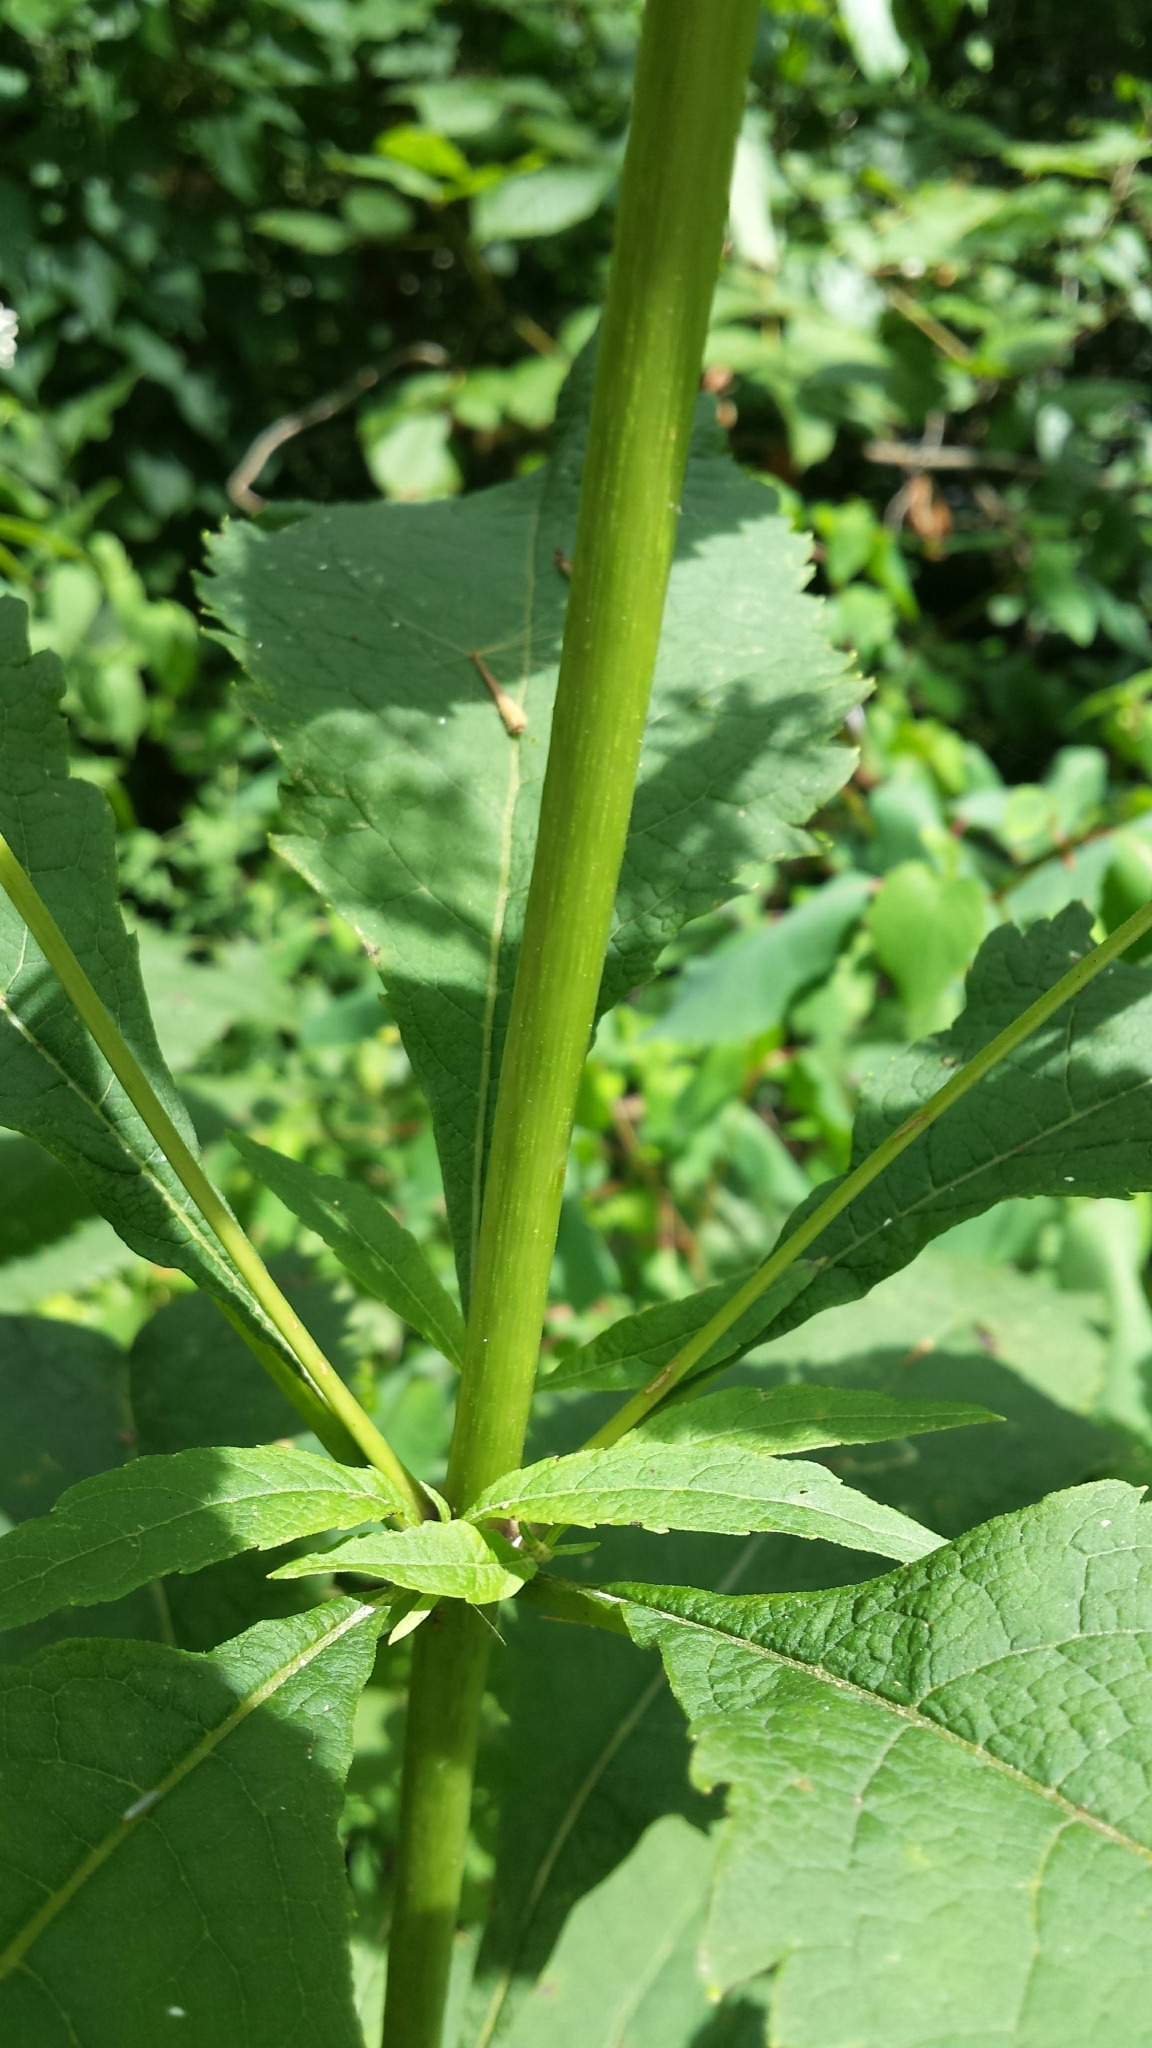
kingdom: Plantae
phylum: Tracheophyta
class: Magnoliopsida
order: Asterales
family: Asteraceae
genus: Eutrochium
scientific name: Eutrochium purpureum
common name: Gravelroot
